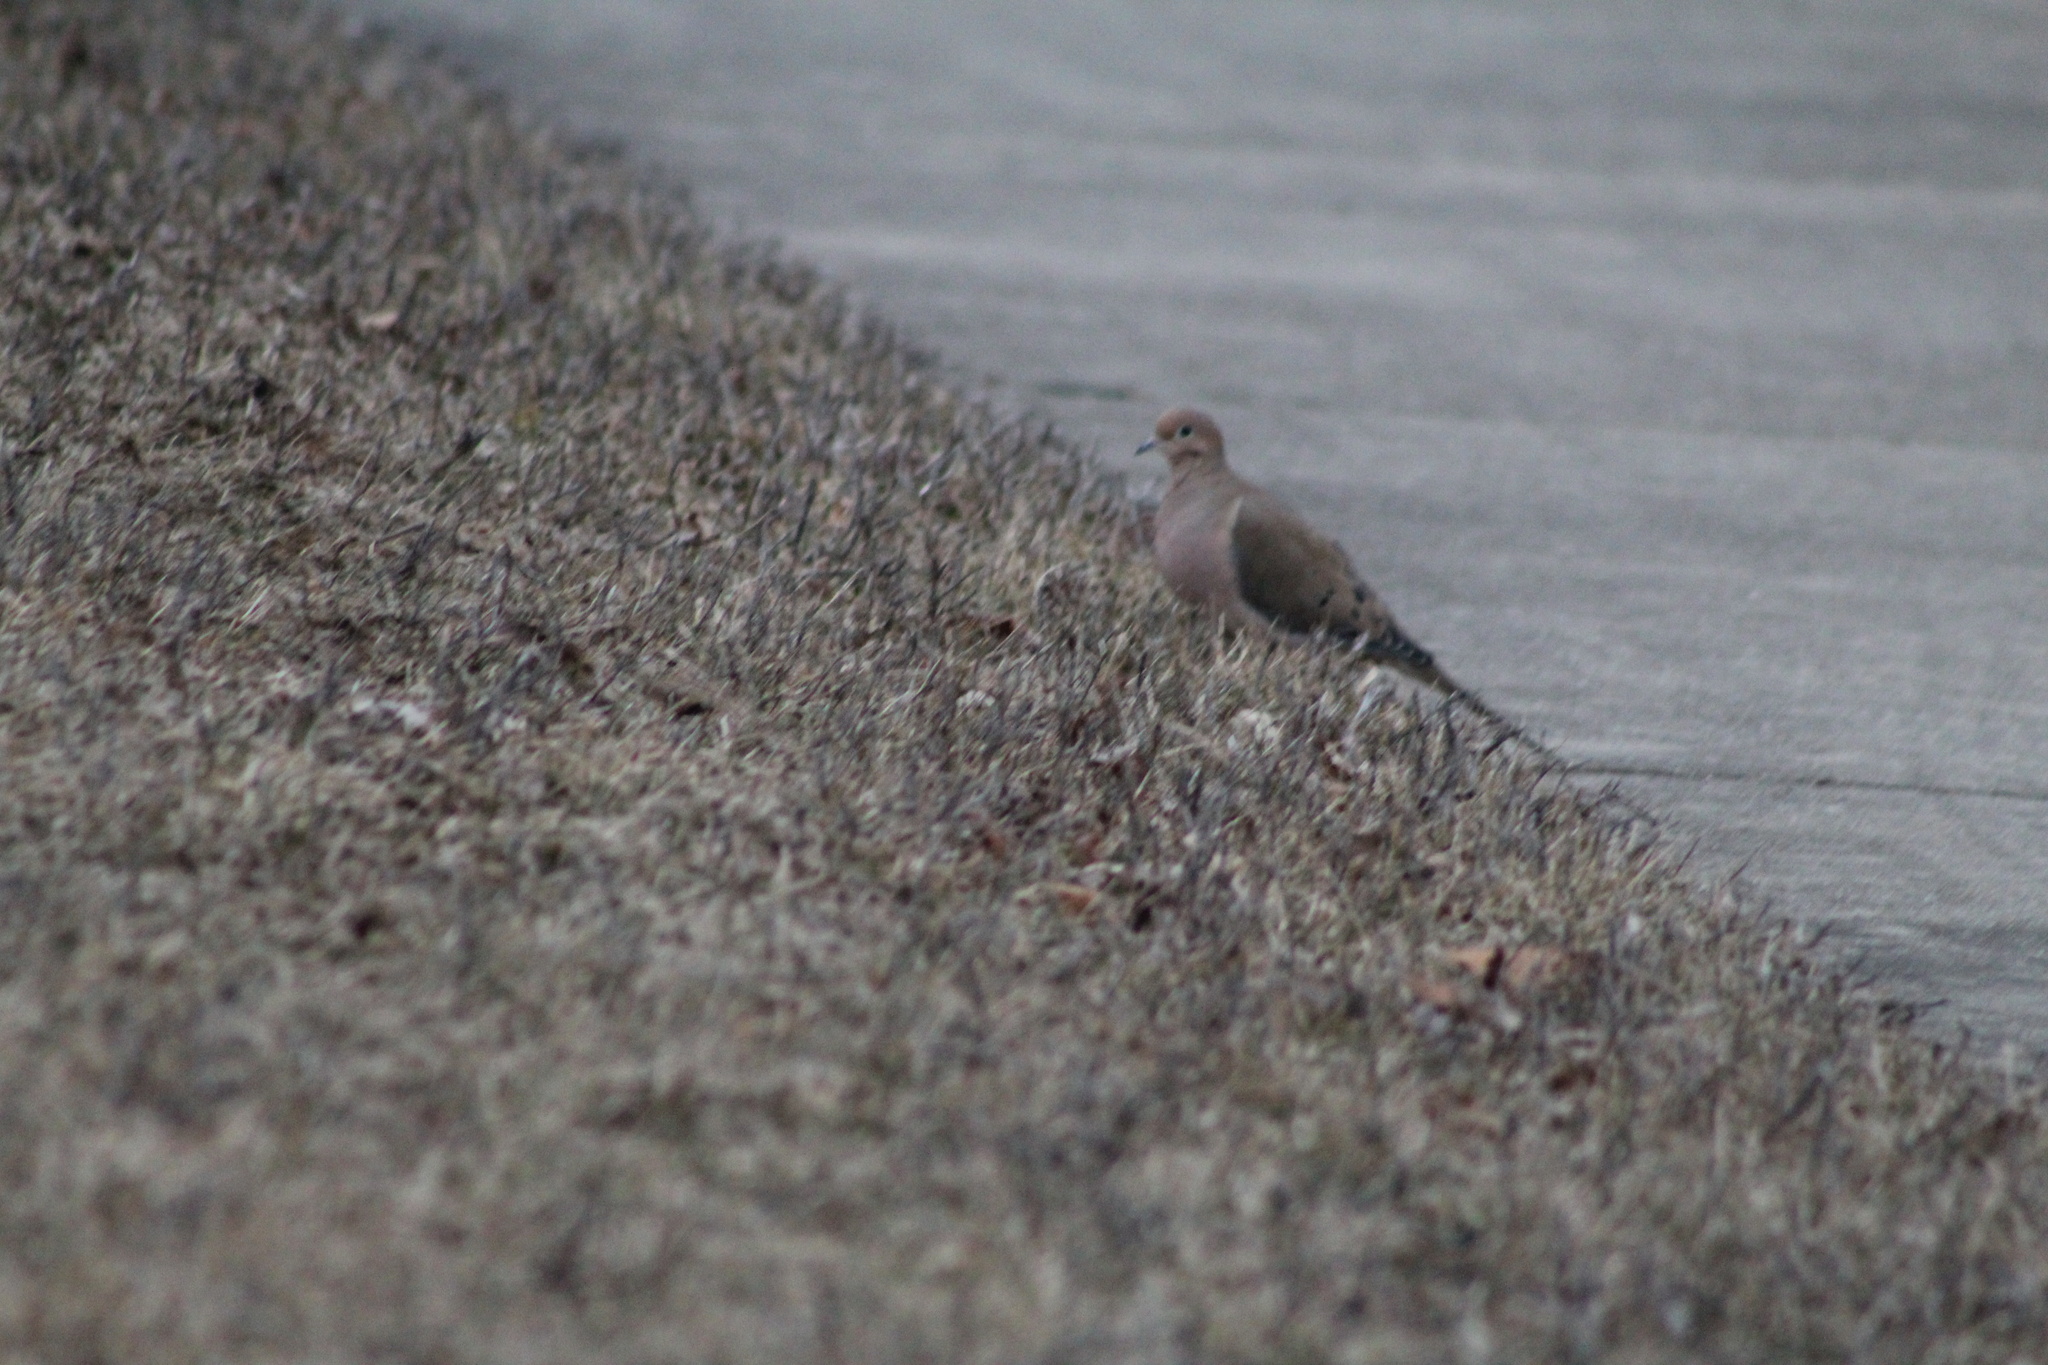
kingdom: Animalia
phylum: Chordata
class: Aves
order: Columbiformes
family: Columbidae
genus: Zenaida
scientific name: Zenaida macroura
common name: Mourning dove
